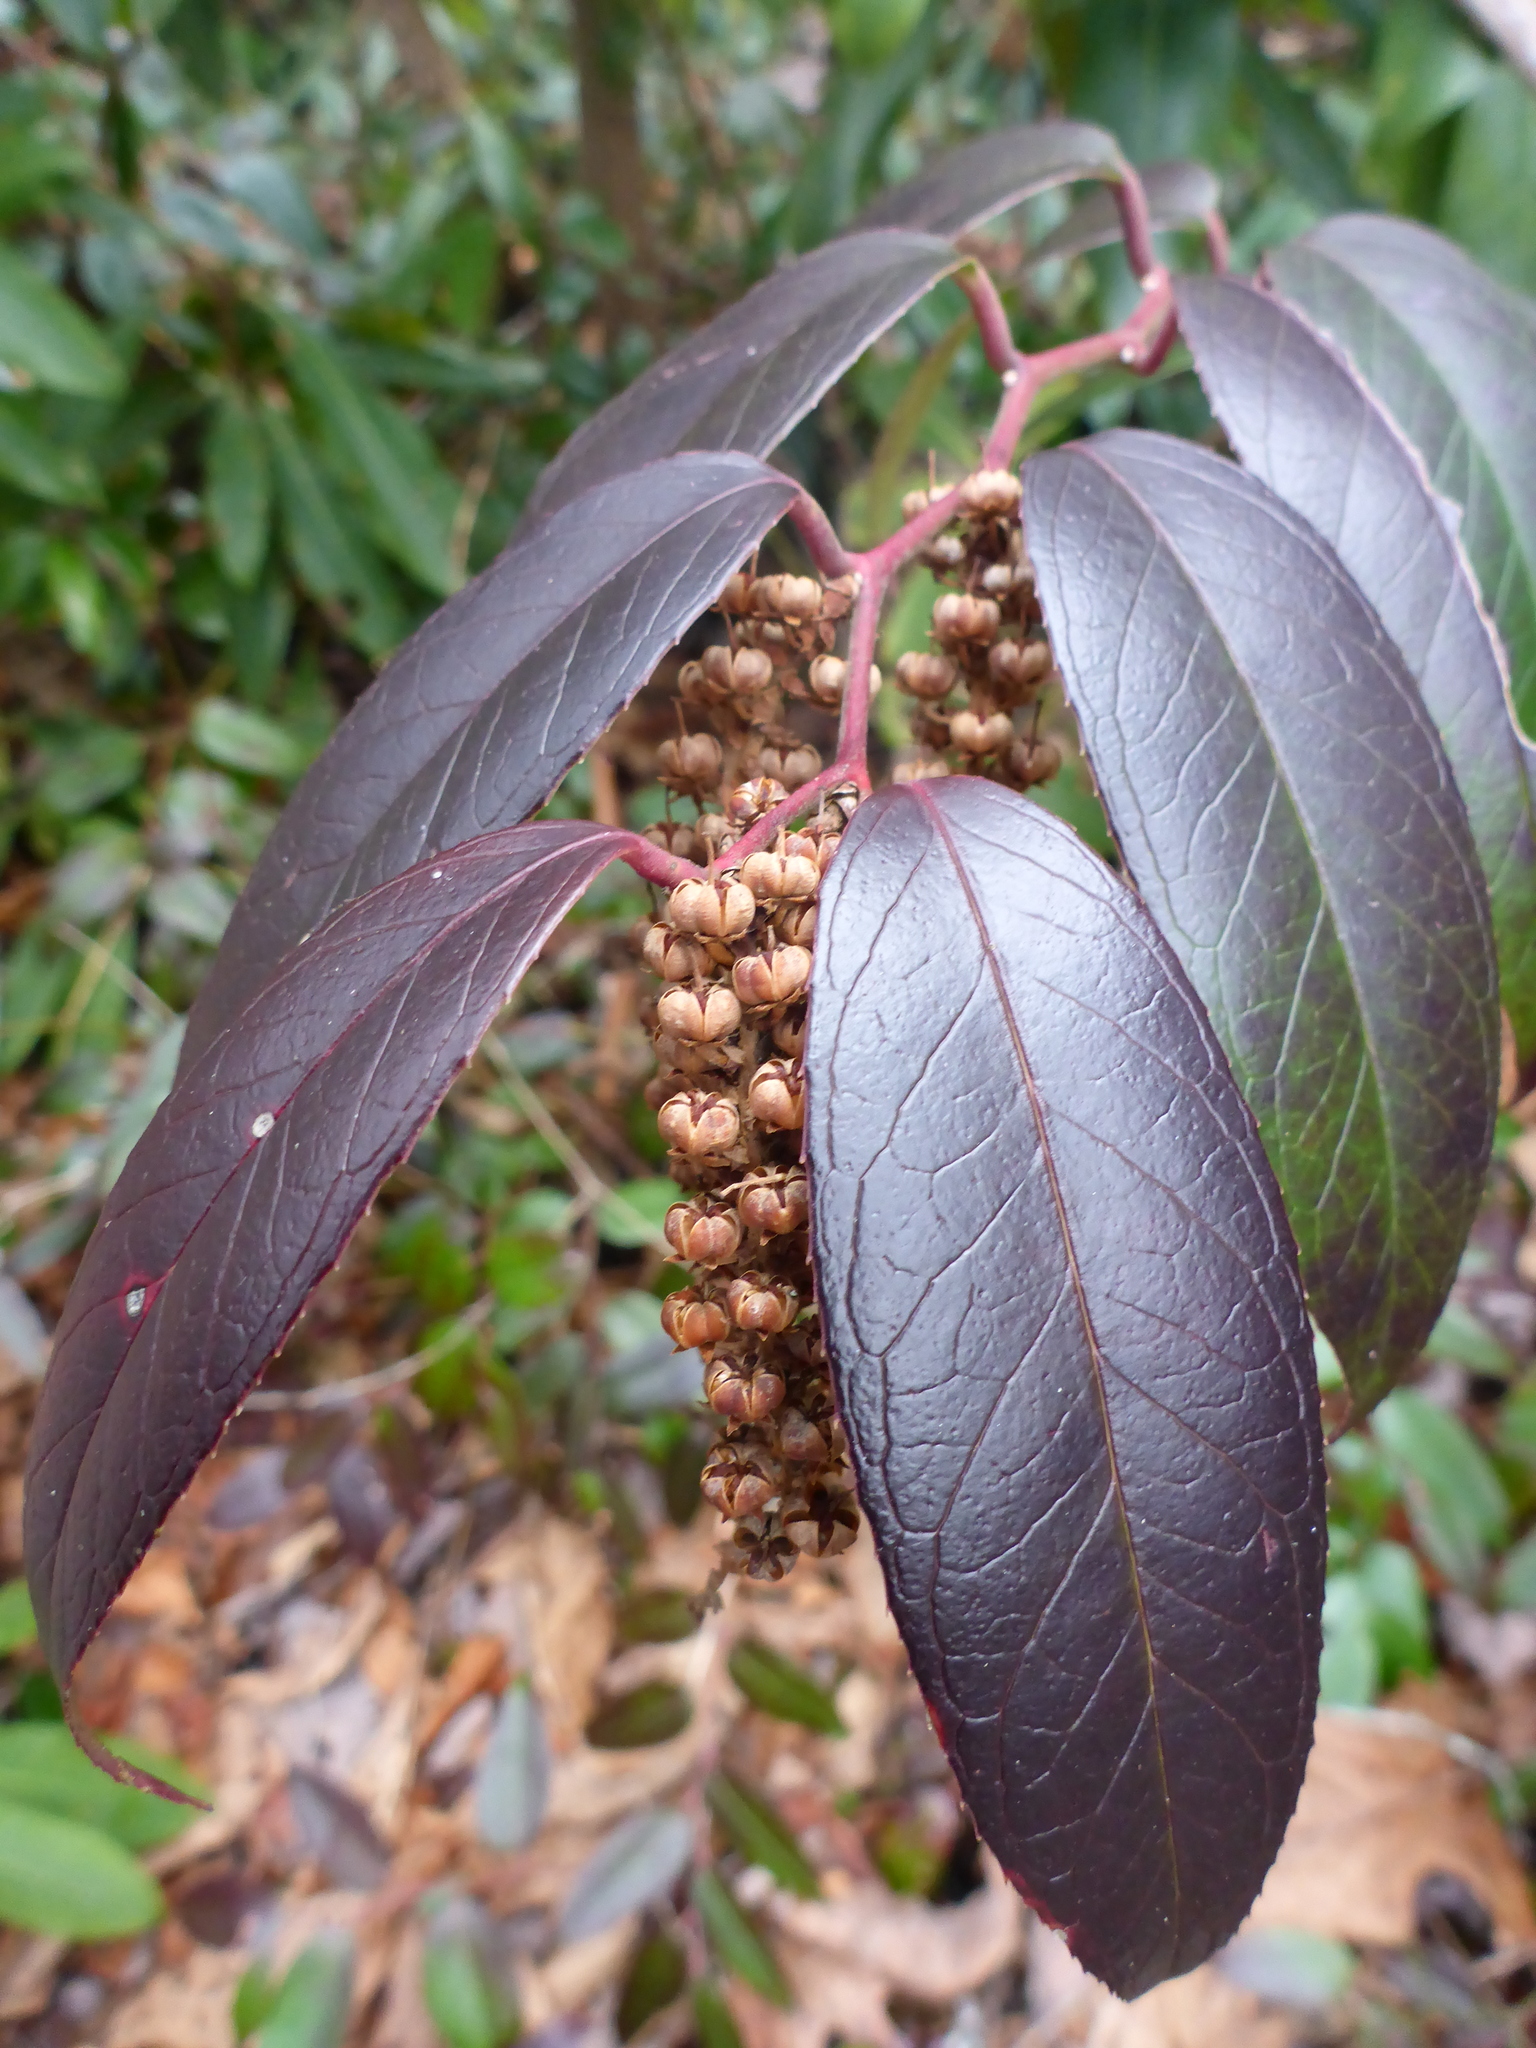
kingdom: Plantae
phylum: Tracheophyta
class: Magnoliopsida
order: Ericales
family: Ericaceae
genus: Leucothoe
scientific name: Leucothoe fontanesiana
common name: Fetterbush
